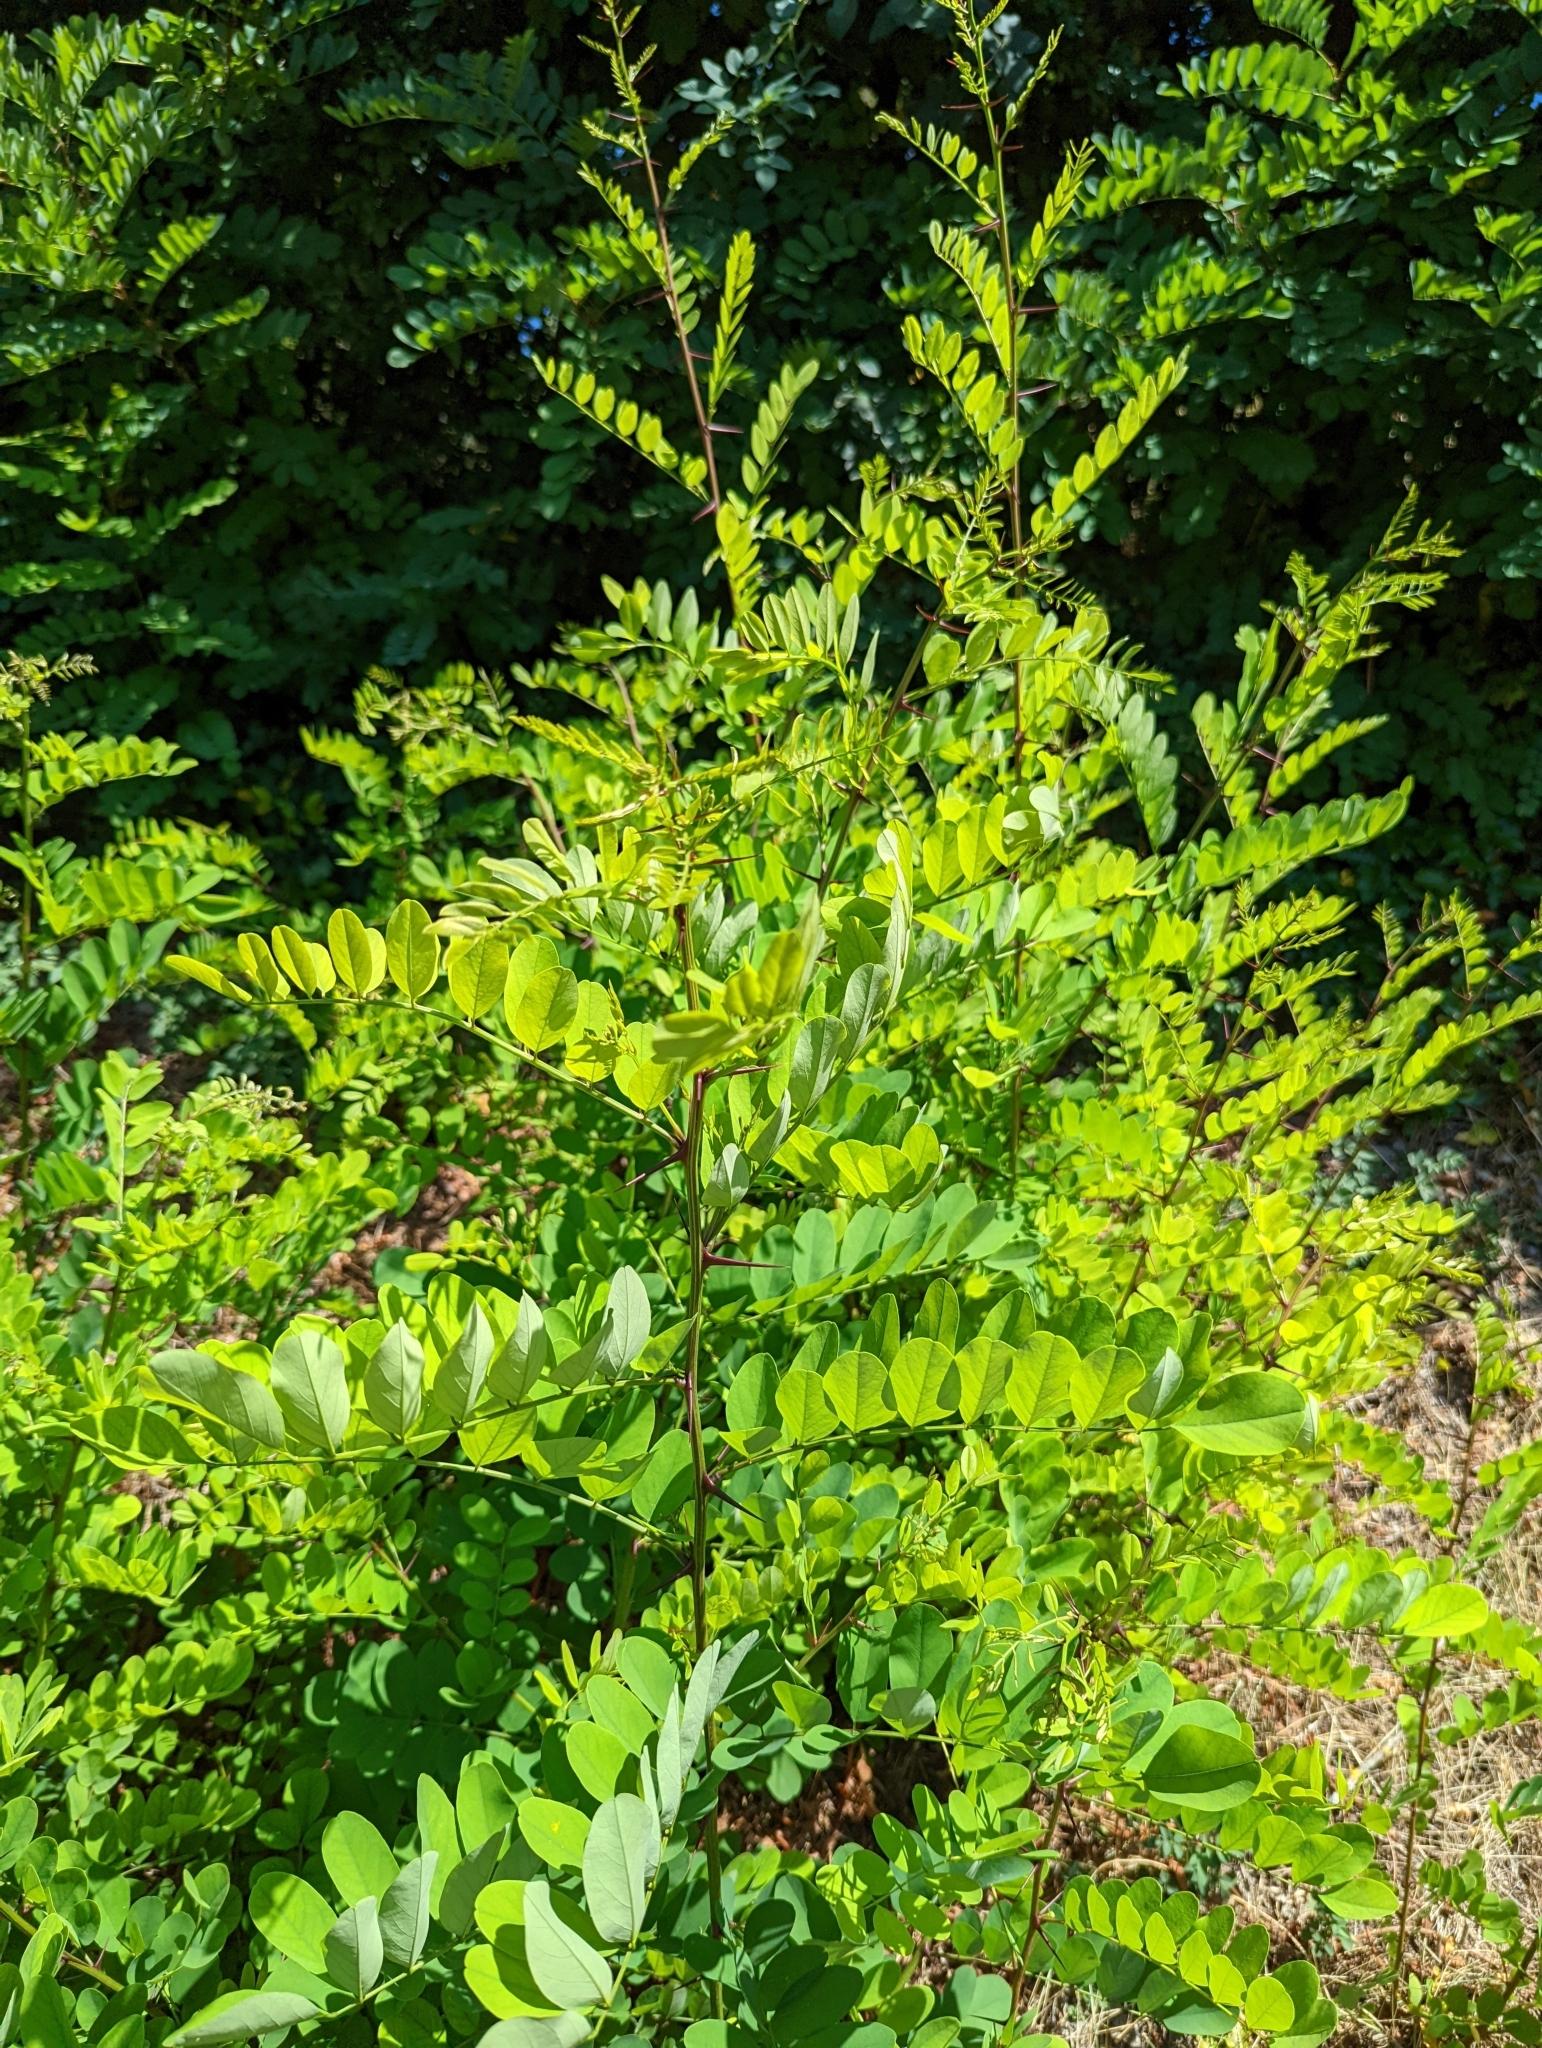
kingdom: Plantae
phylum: Tracheophyta
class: Magnoliopsida
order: Fabales
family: Fabaceae
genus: Robinia
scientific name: Robinia pseudoacacia
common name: Black locust
